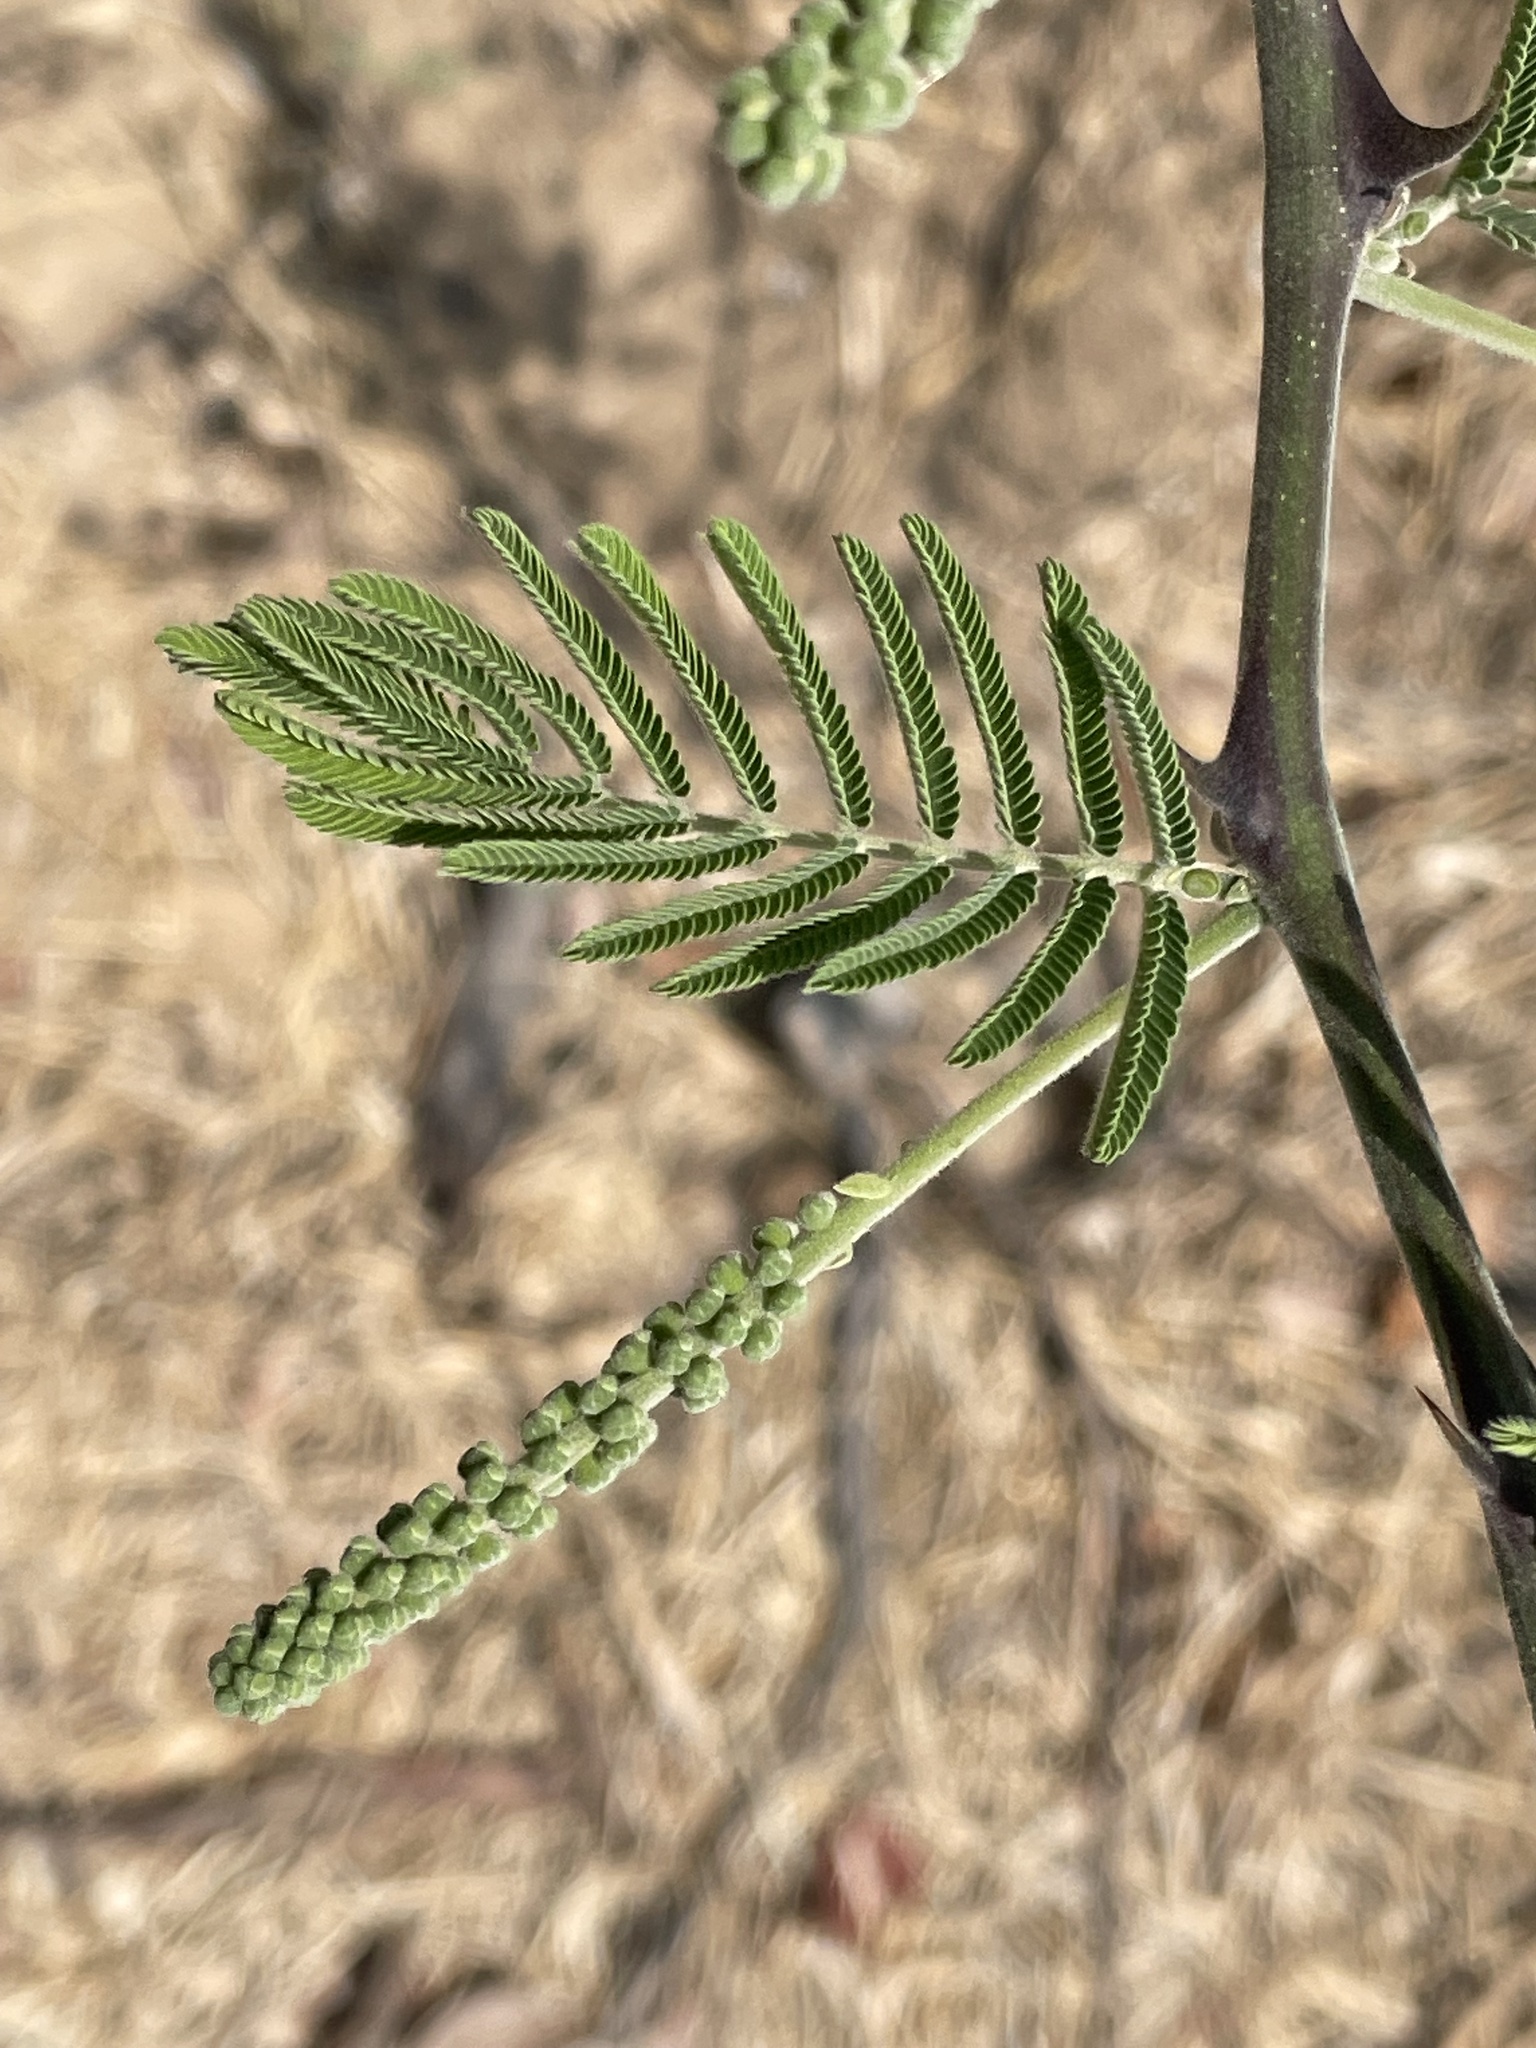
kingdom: Plantae
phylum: Tracheophyta
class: Magnoliopsida
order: Fabales
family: Fabaceae
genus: Senegalia
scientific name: Senegalia erubescens
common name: Bluethorn
